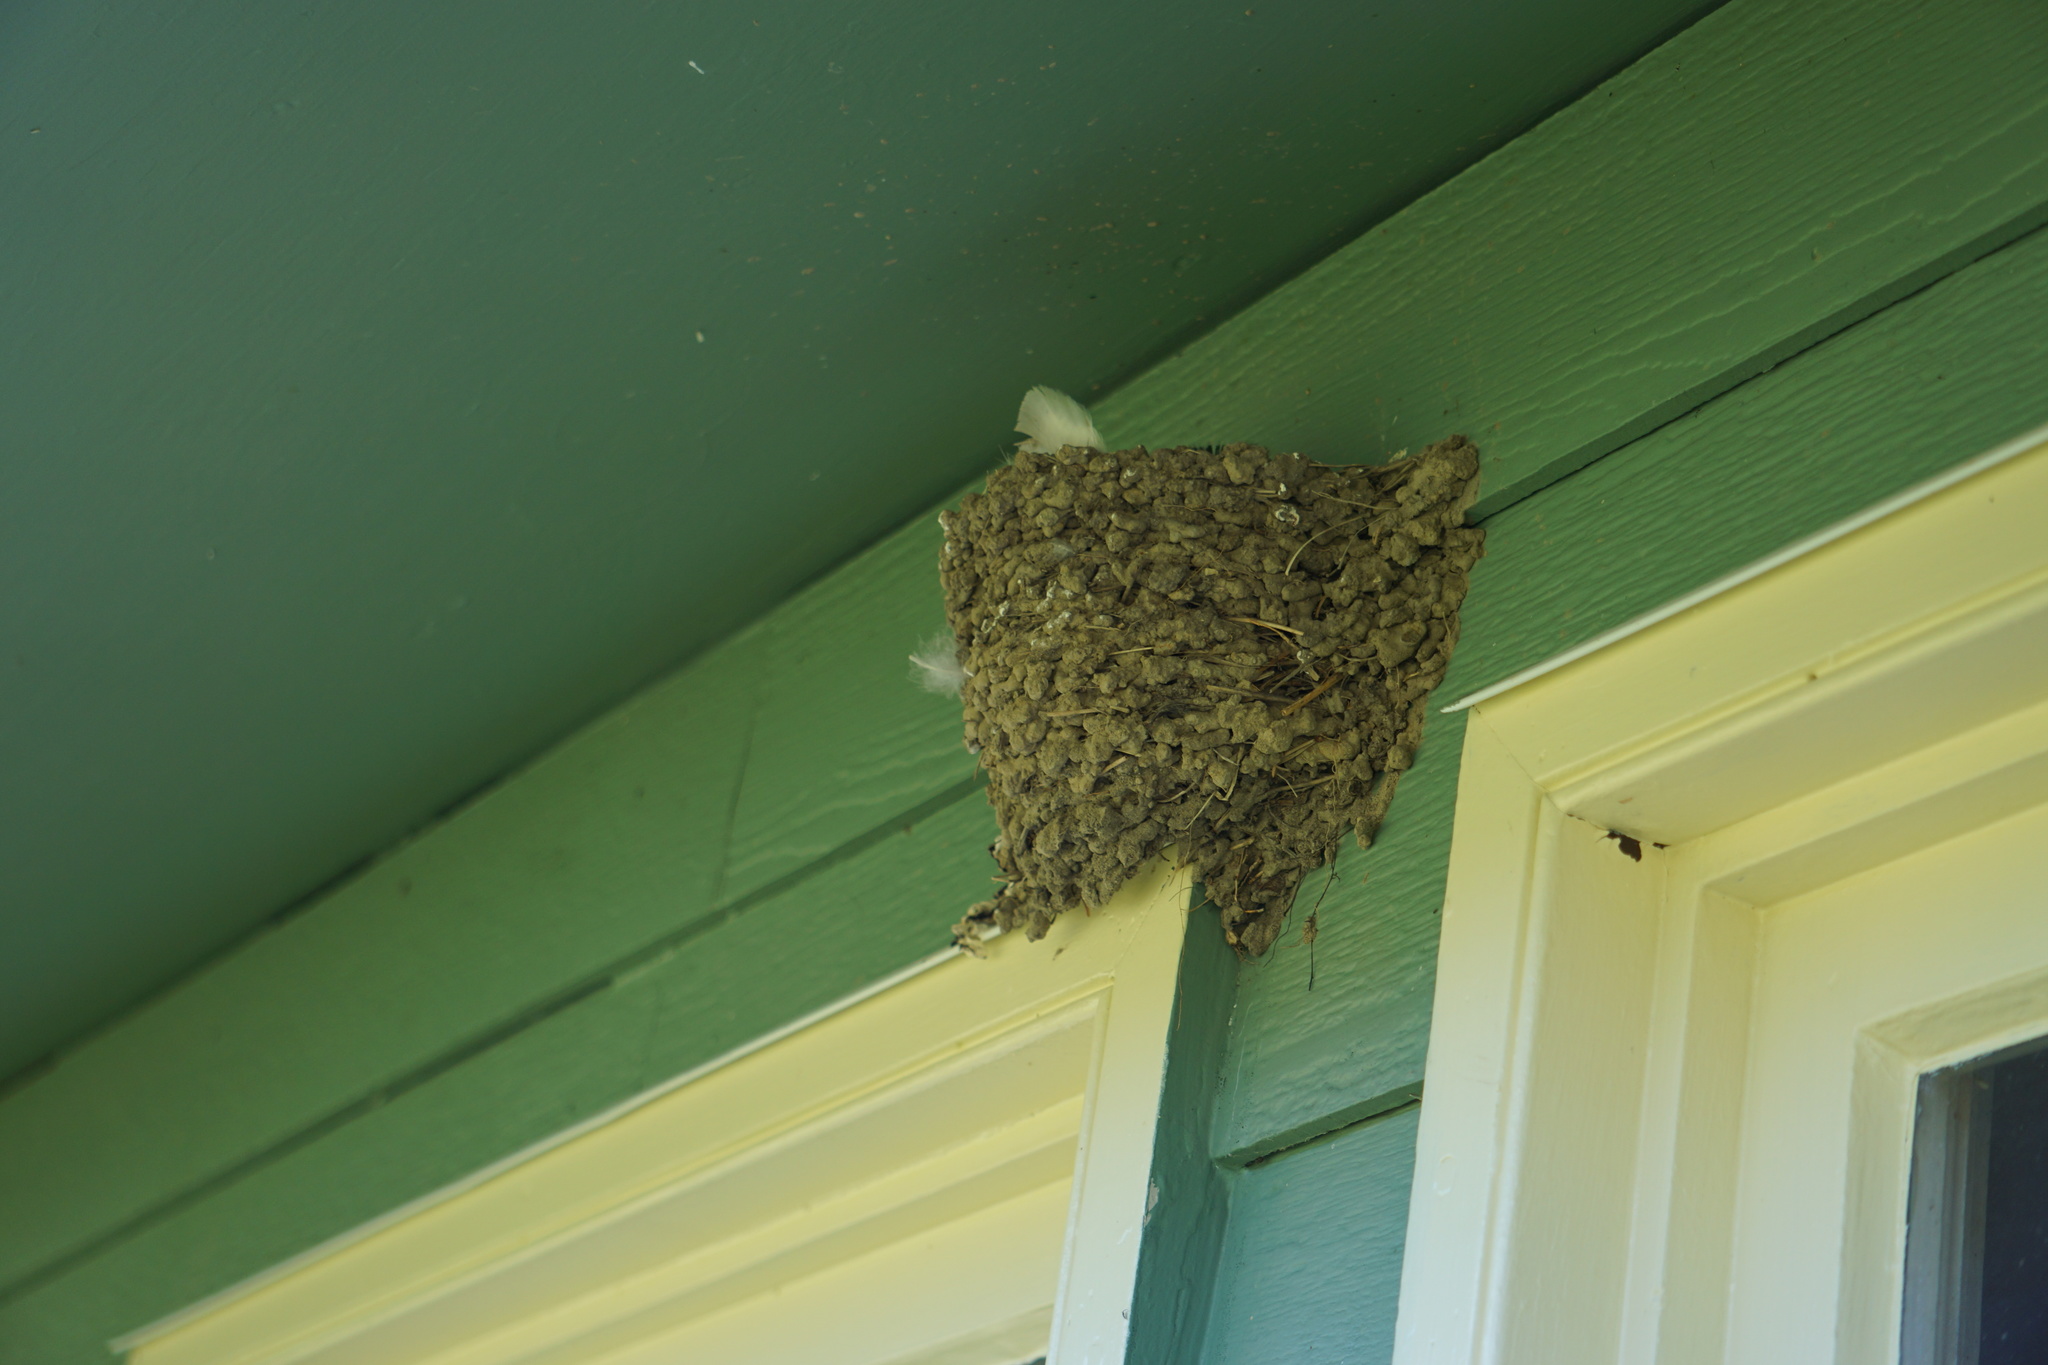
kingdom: Animalia
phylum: Chordata
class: Aves
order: Passeriformes
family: Hirundinidae
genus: Hirundo
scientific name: Hirundo rustica
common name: Barn swallow
